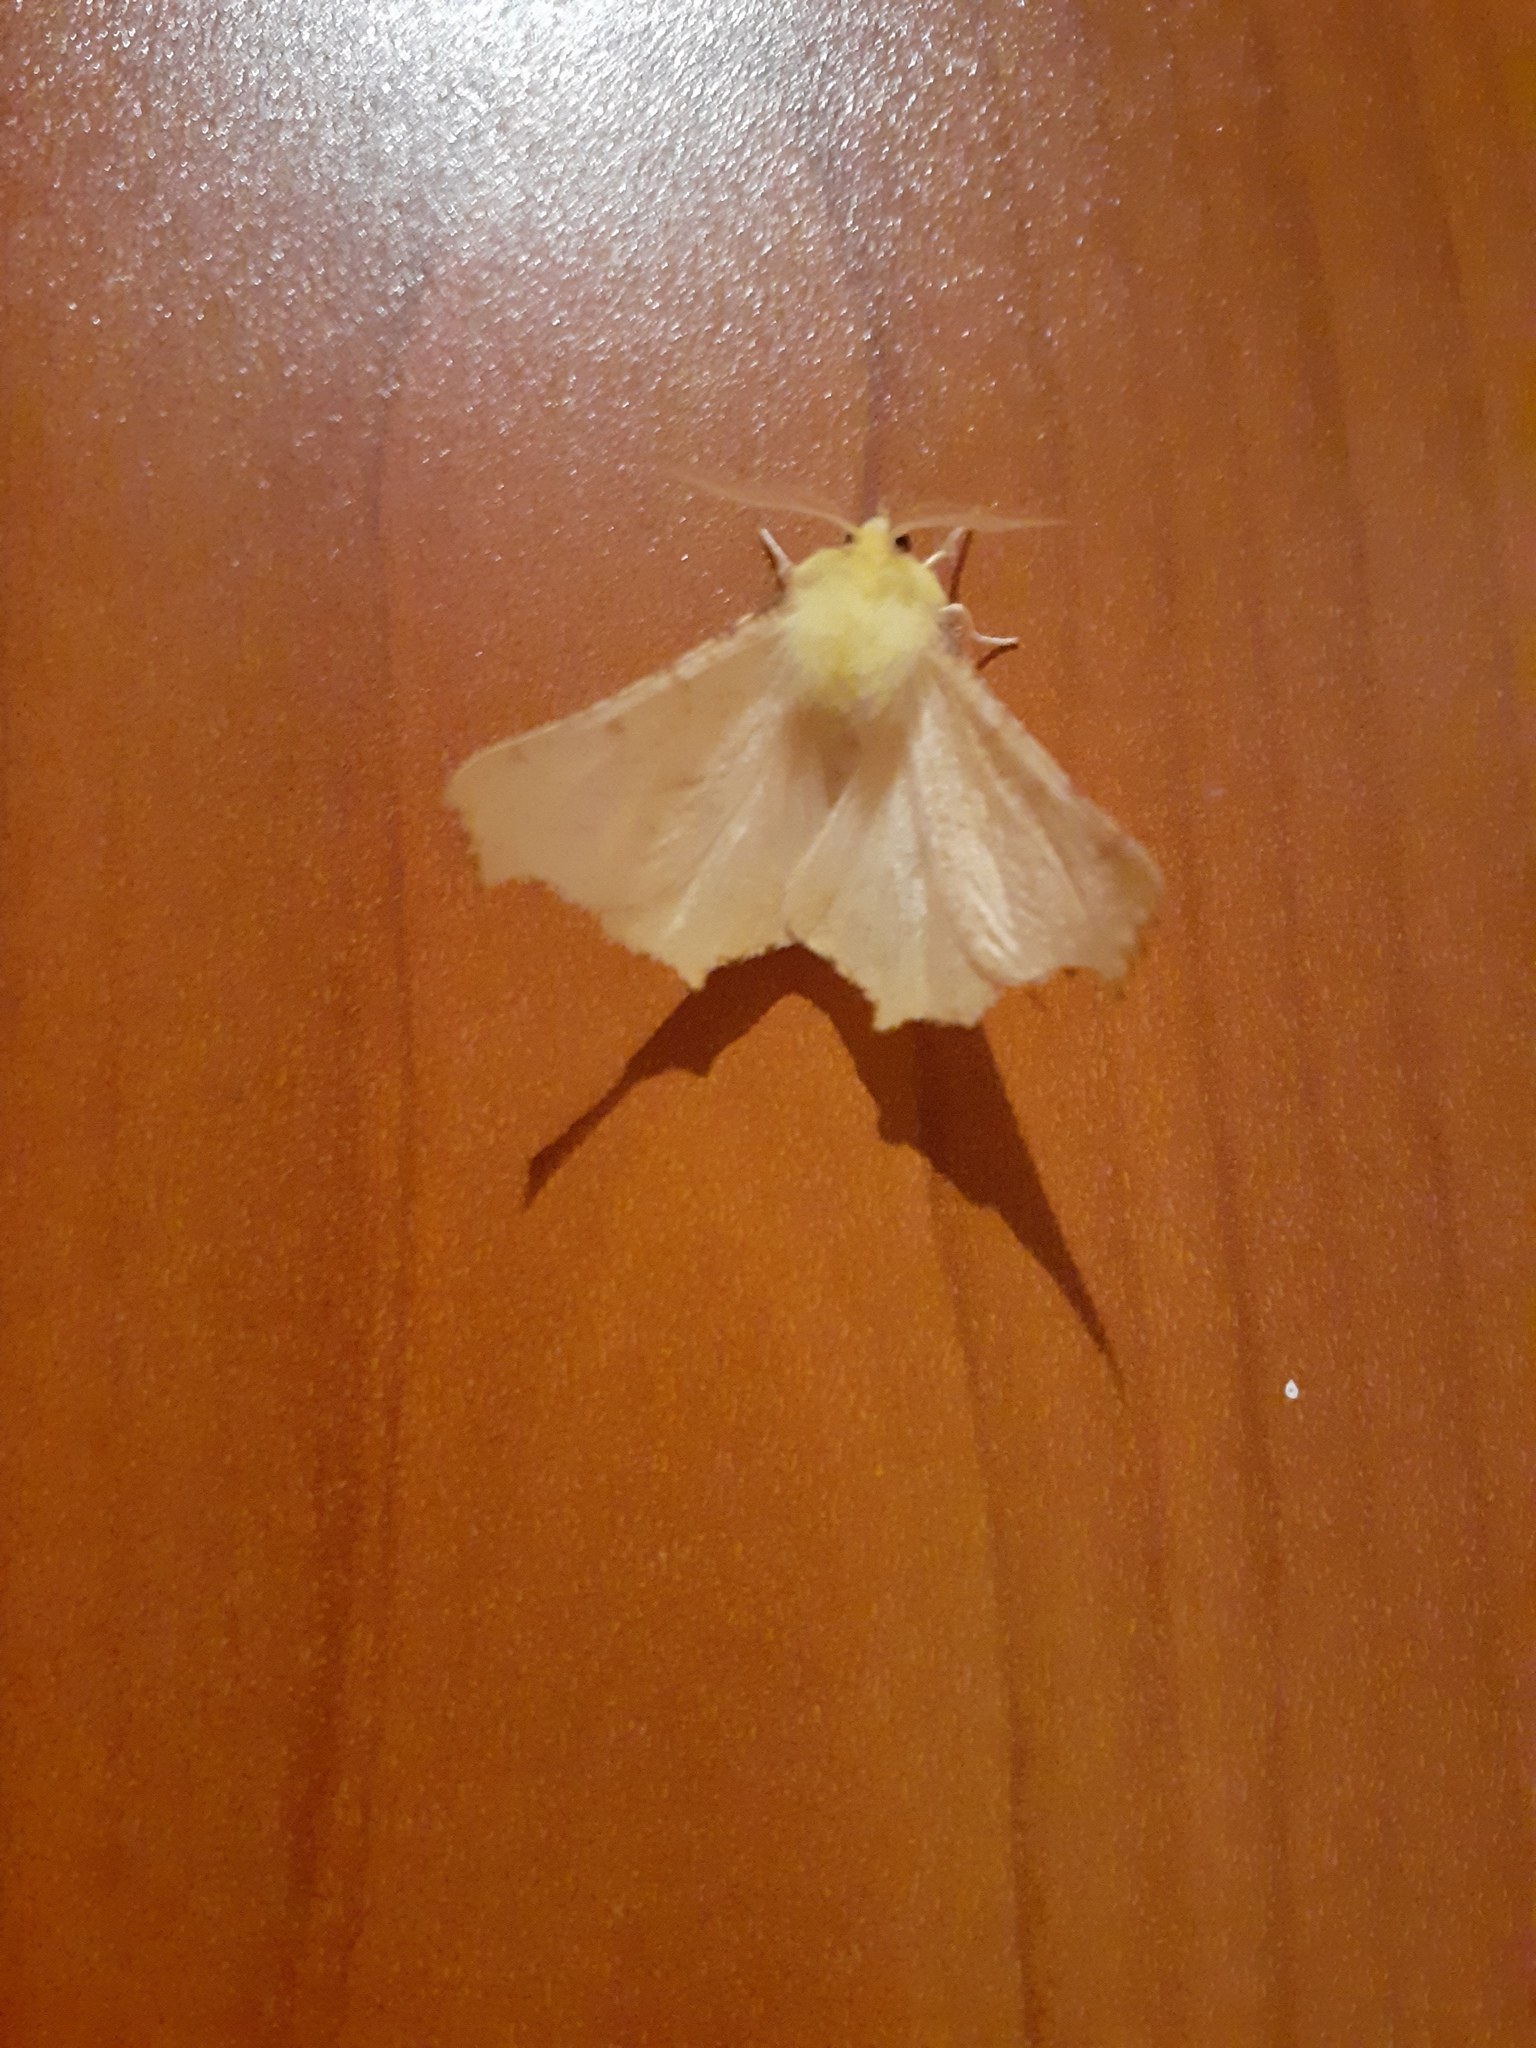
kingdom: Animalia
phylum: Arthropoda
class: Insecta
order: Lepidoptera
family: Geometridae
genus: Ennomos
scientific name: Ennomos alniaria
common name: Canary-shouldered thorn
